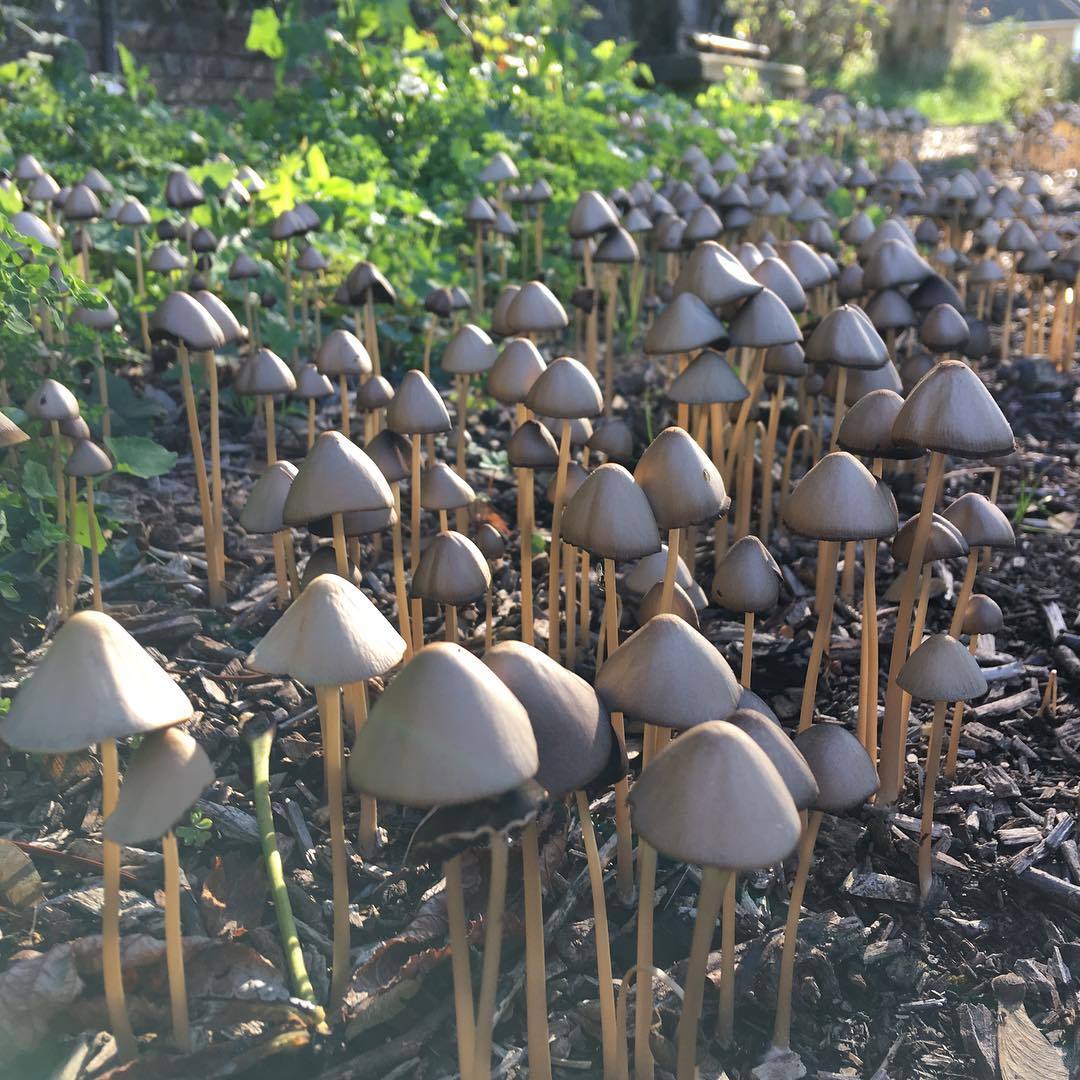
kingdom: Fungi
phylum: Basidiomycota
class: Agaricomycetes
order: Agaricales
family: Psathyrellaceae
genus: Parasola
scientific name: Parasola conopilea
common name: Conical brittlestem
